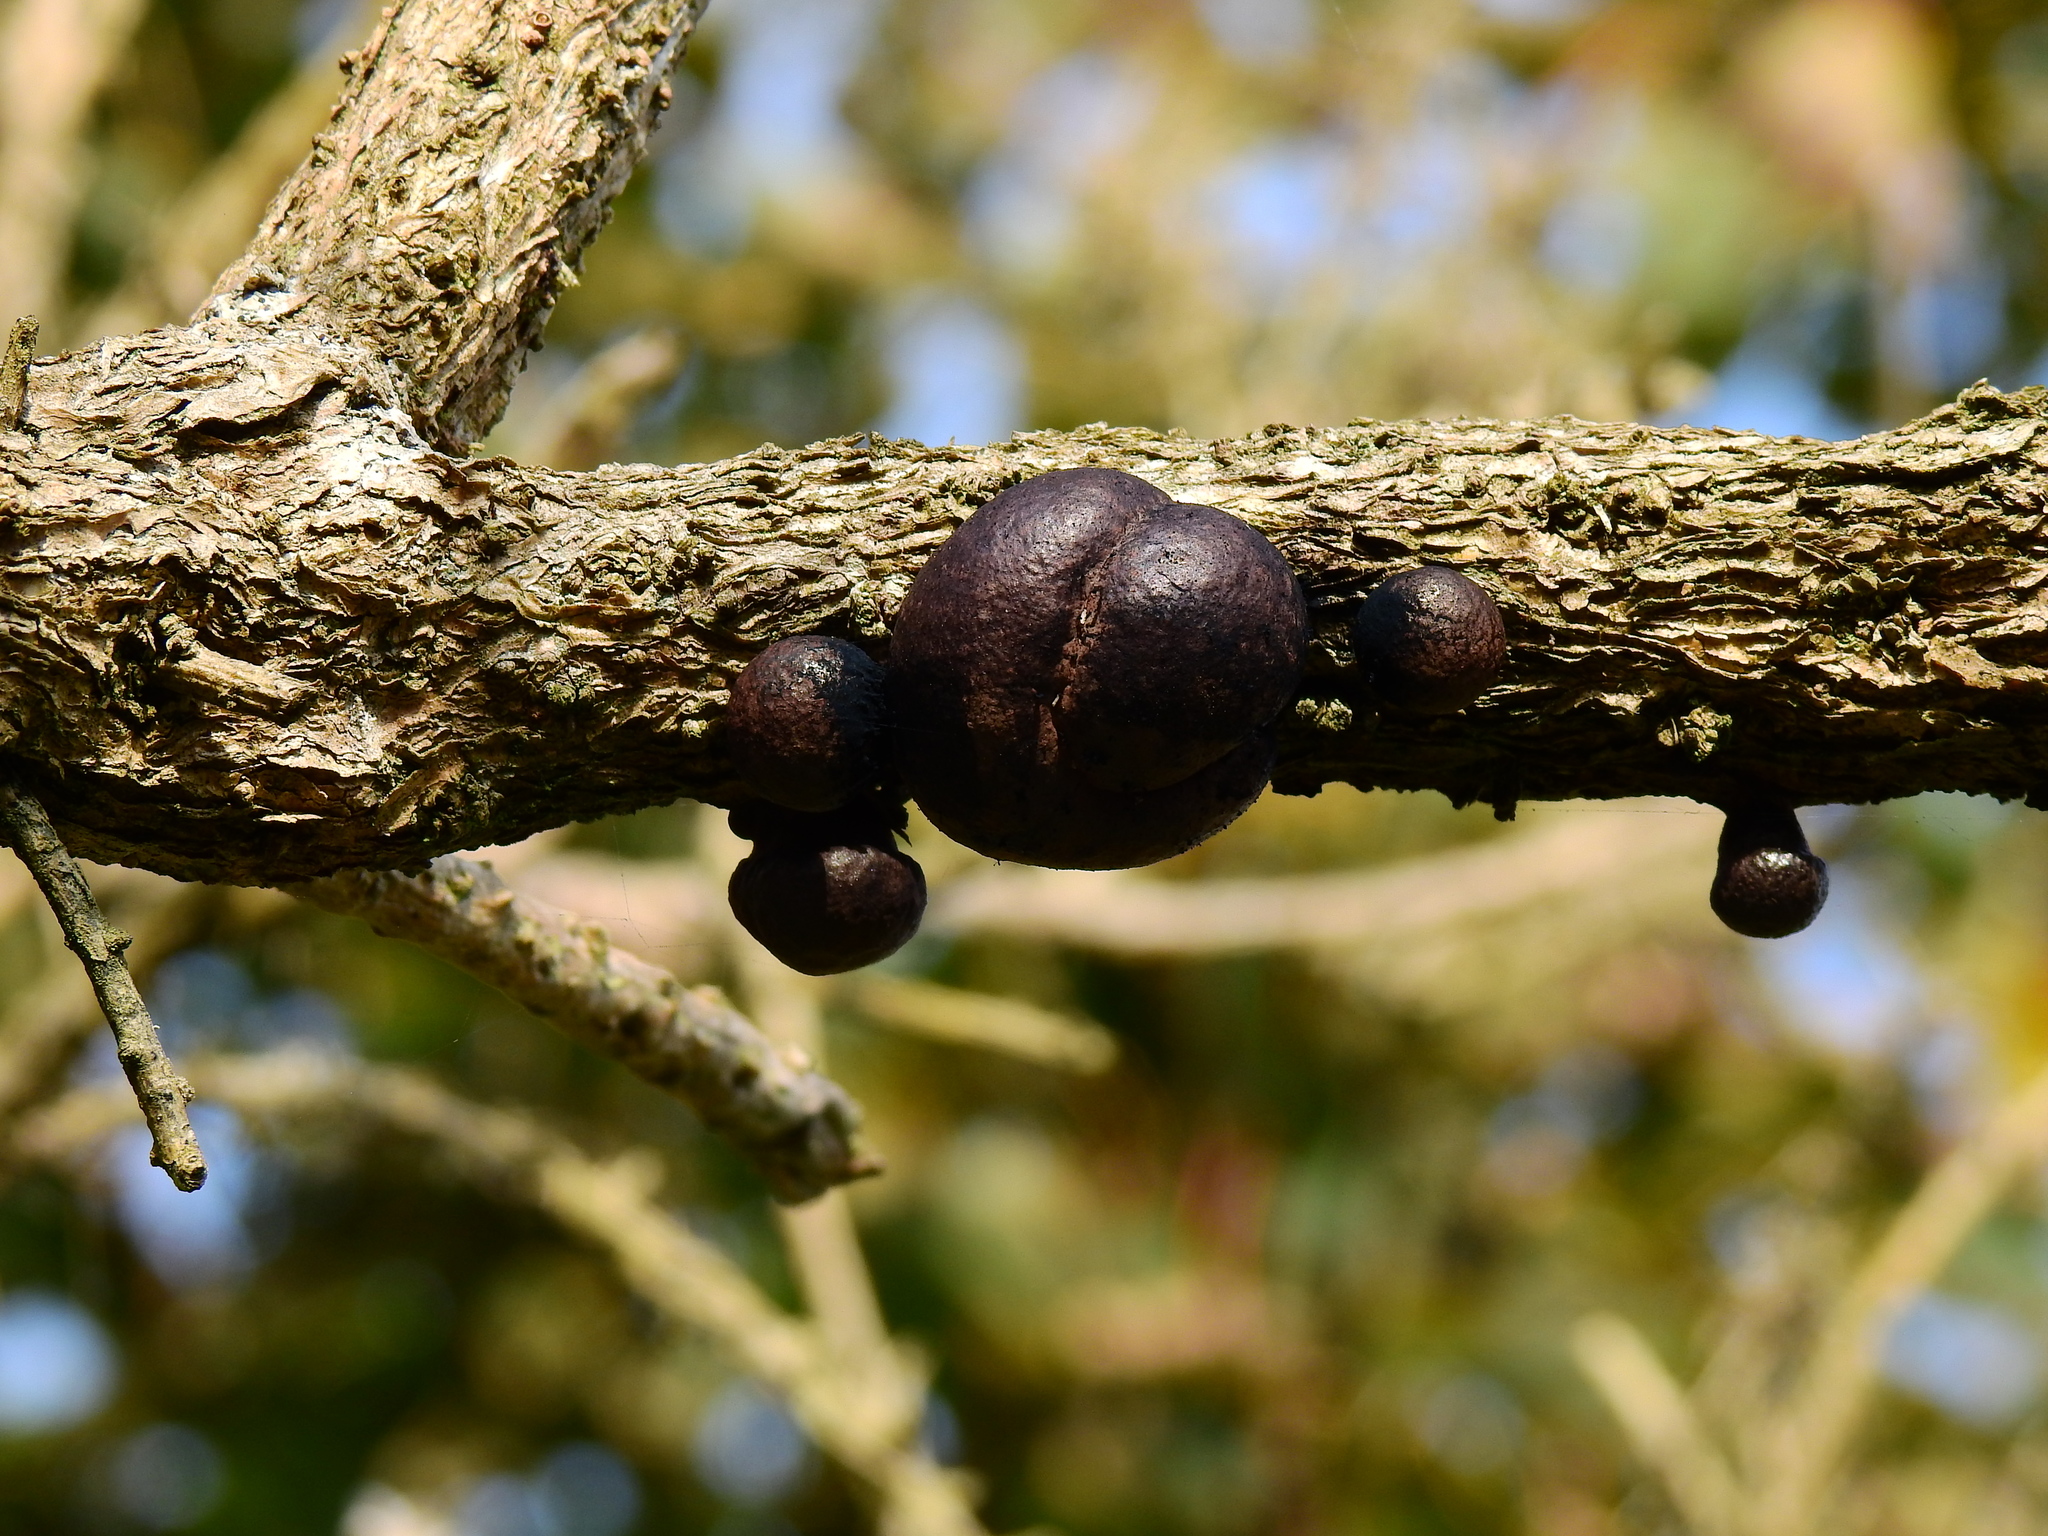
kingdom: Fungi
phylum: Ascomycota
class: Sordariomycetes
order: Xylariales
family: Hypoxylaceae
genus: Daldinia
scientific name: Daldinia concentrica
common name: Cramp balls
